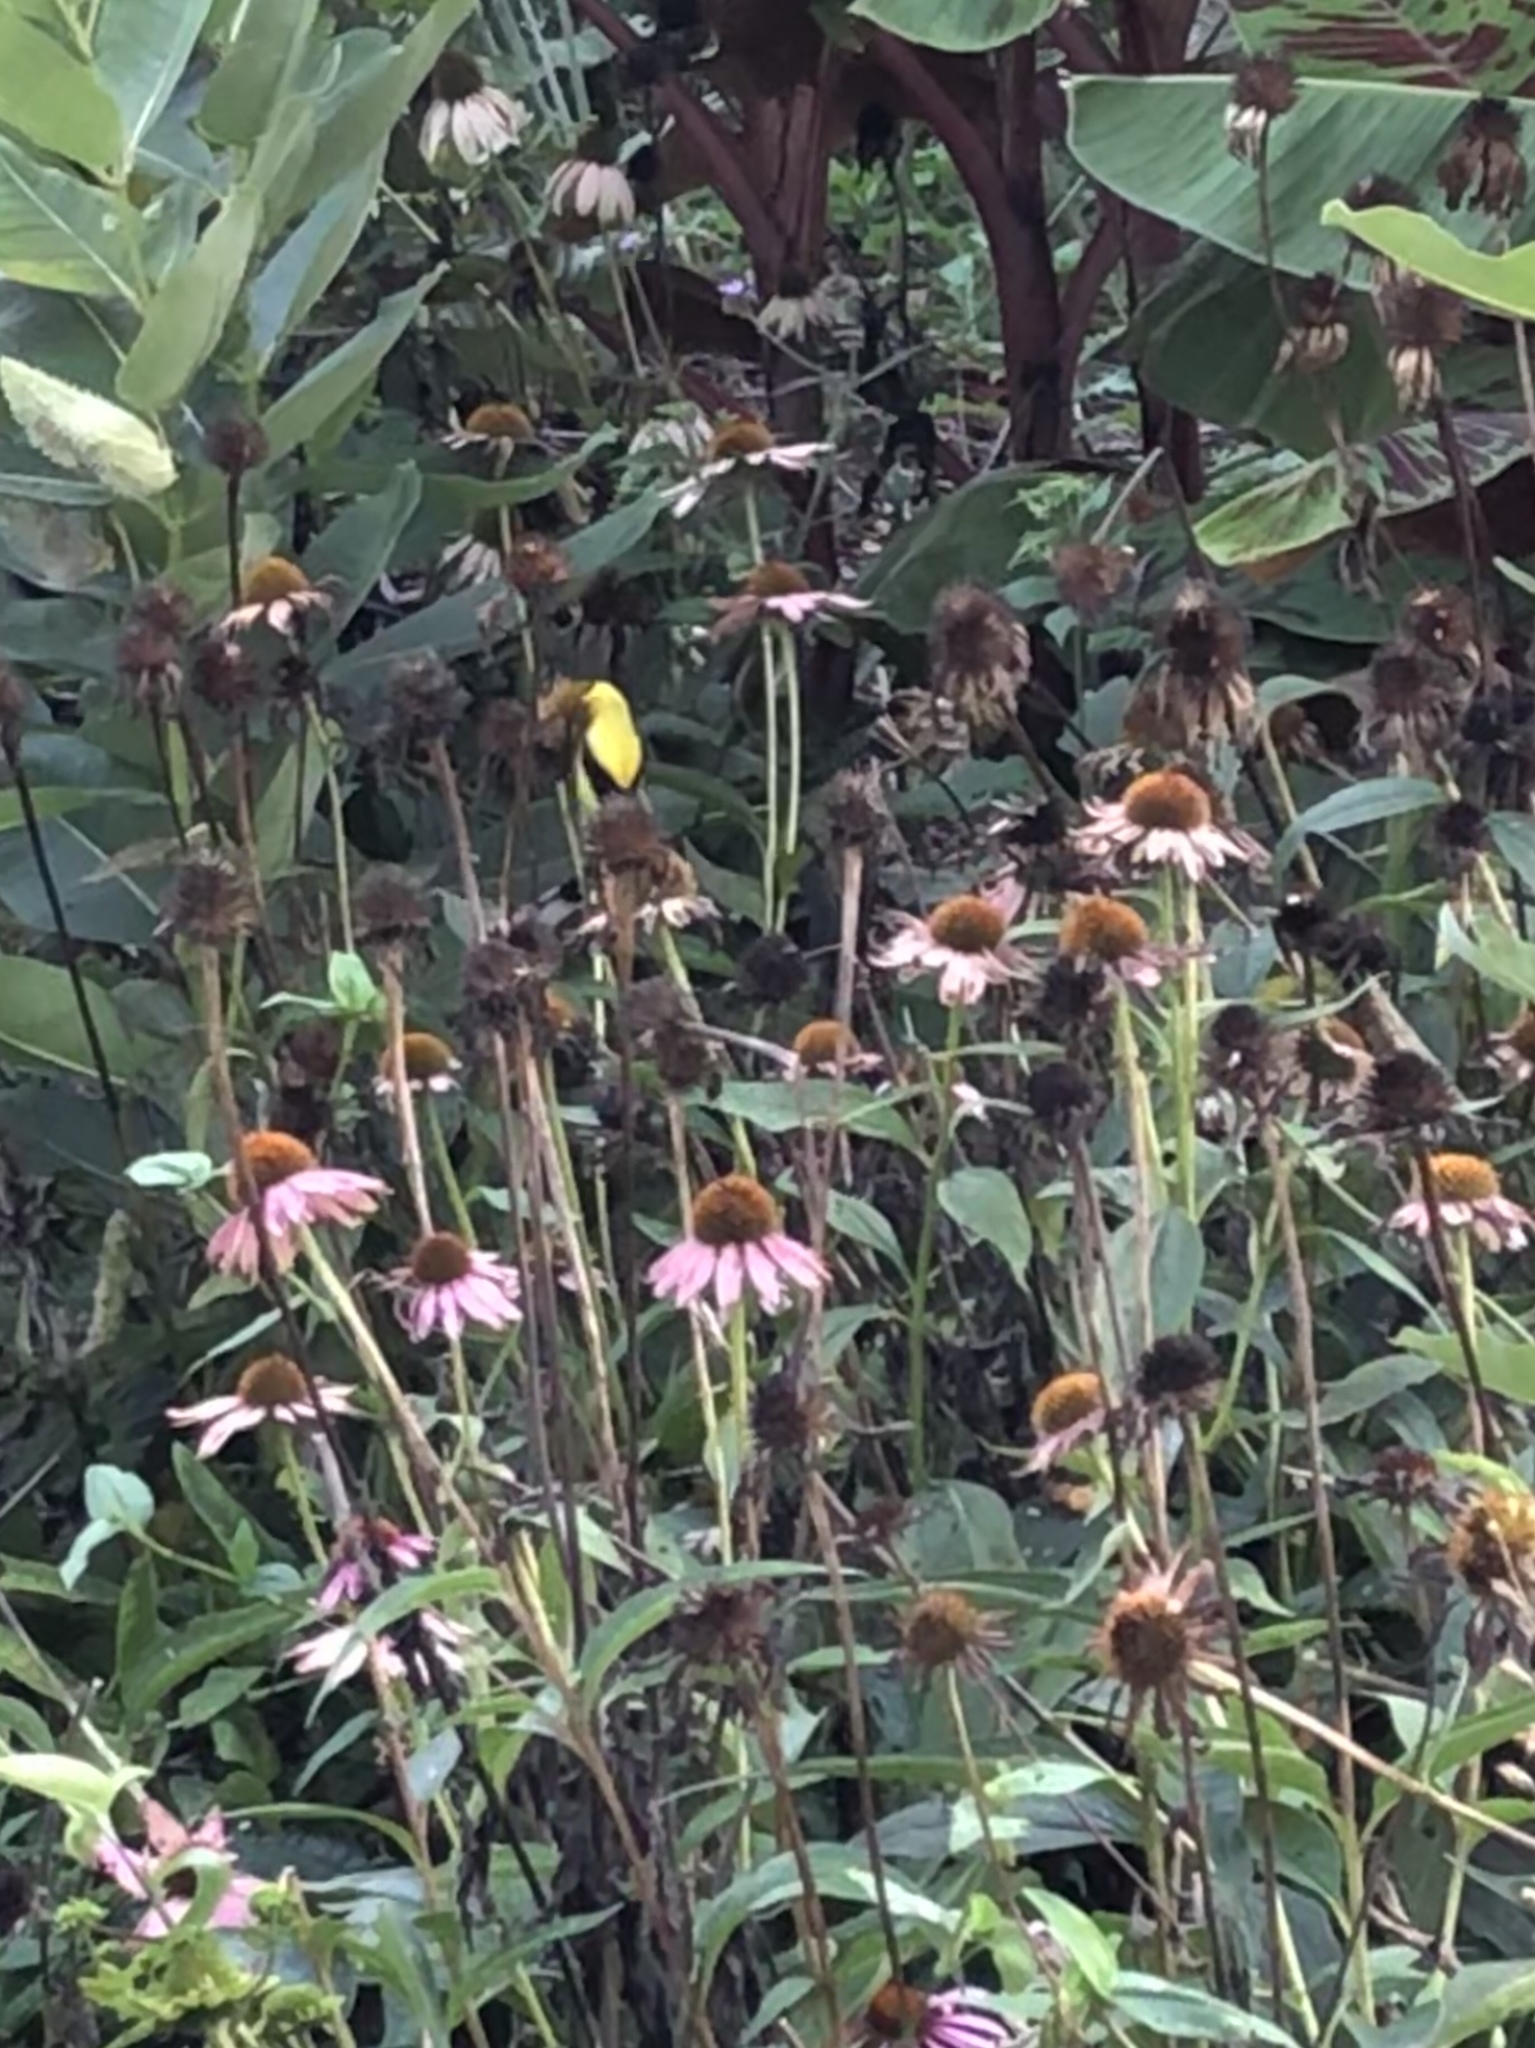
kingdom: Animalia
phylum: Chordata
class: Aves
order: Passeriformes
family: Fringillidae
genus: Spinus
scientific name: Spinus tristis
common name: American goldfinch
